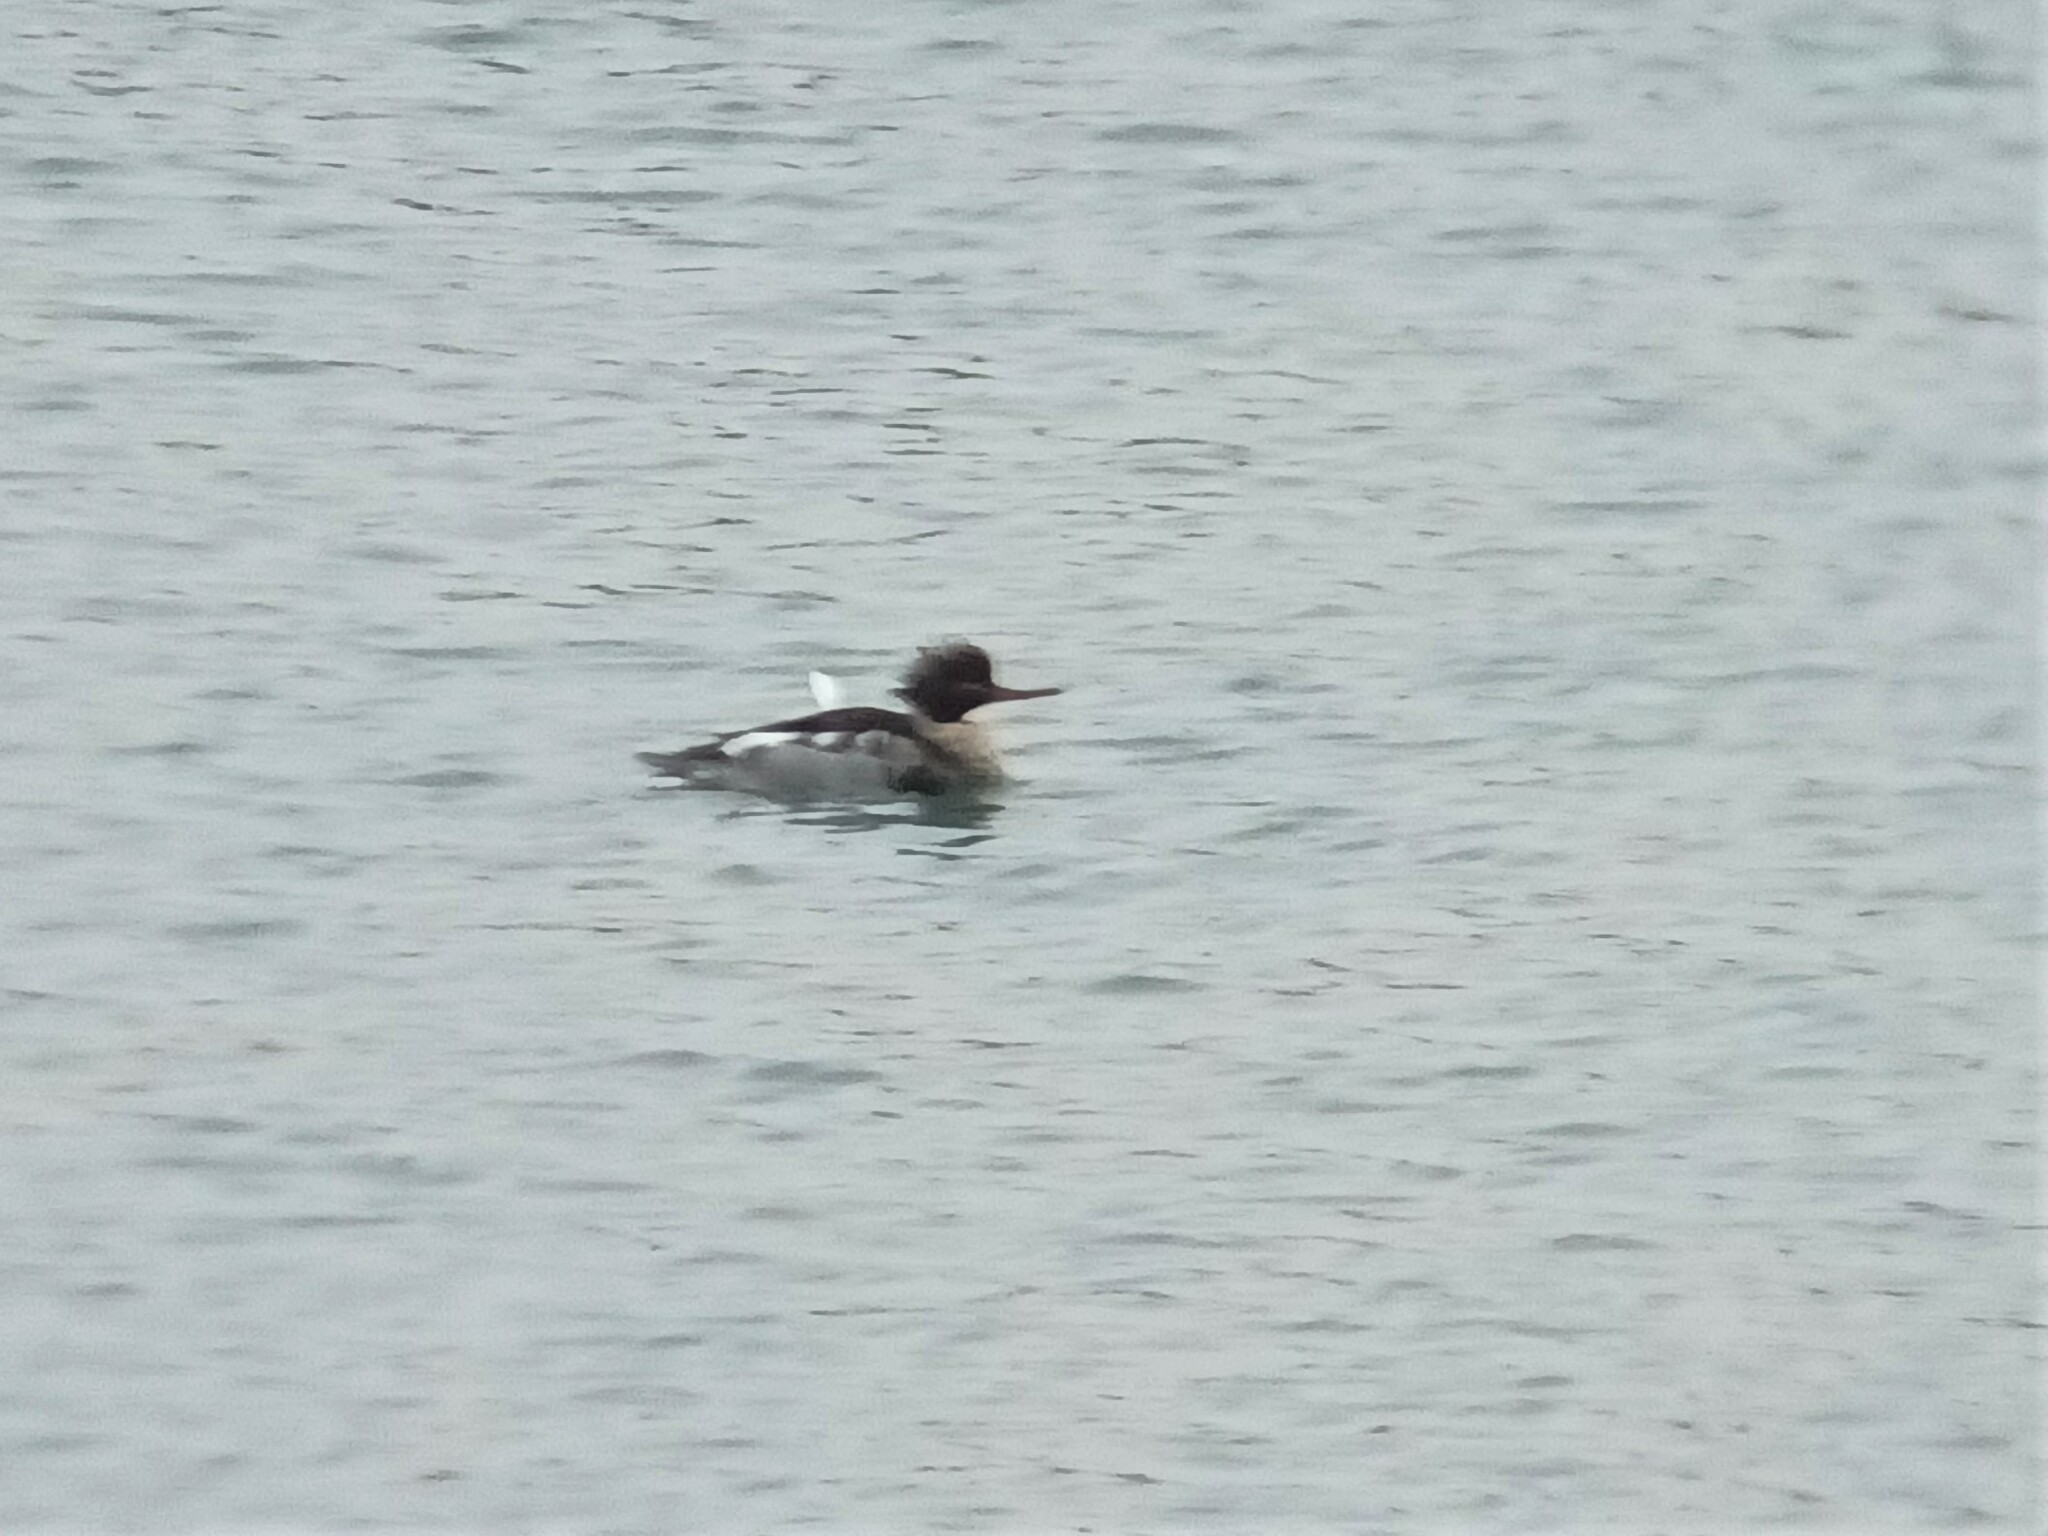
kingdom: Animalia
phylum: Chordata
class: Aves
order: Anseriformes
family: Anatidae
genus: Mergus
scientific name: Mergus serrator
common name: Red-breasted merganser
